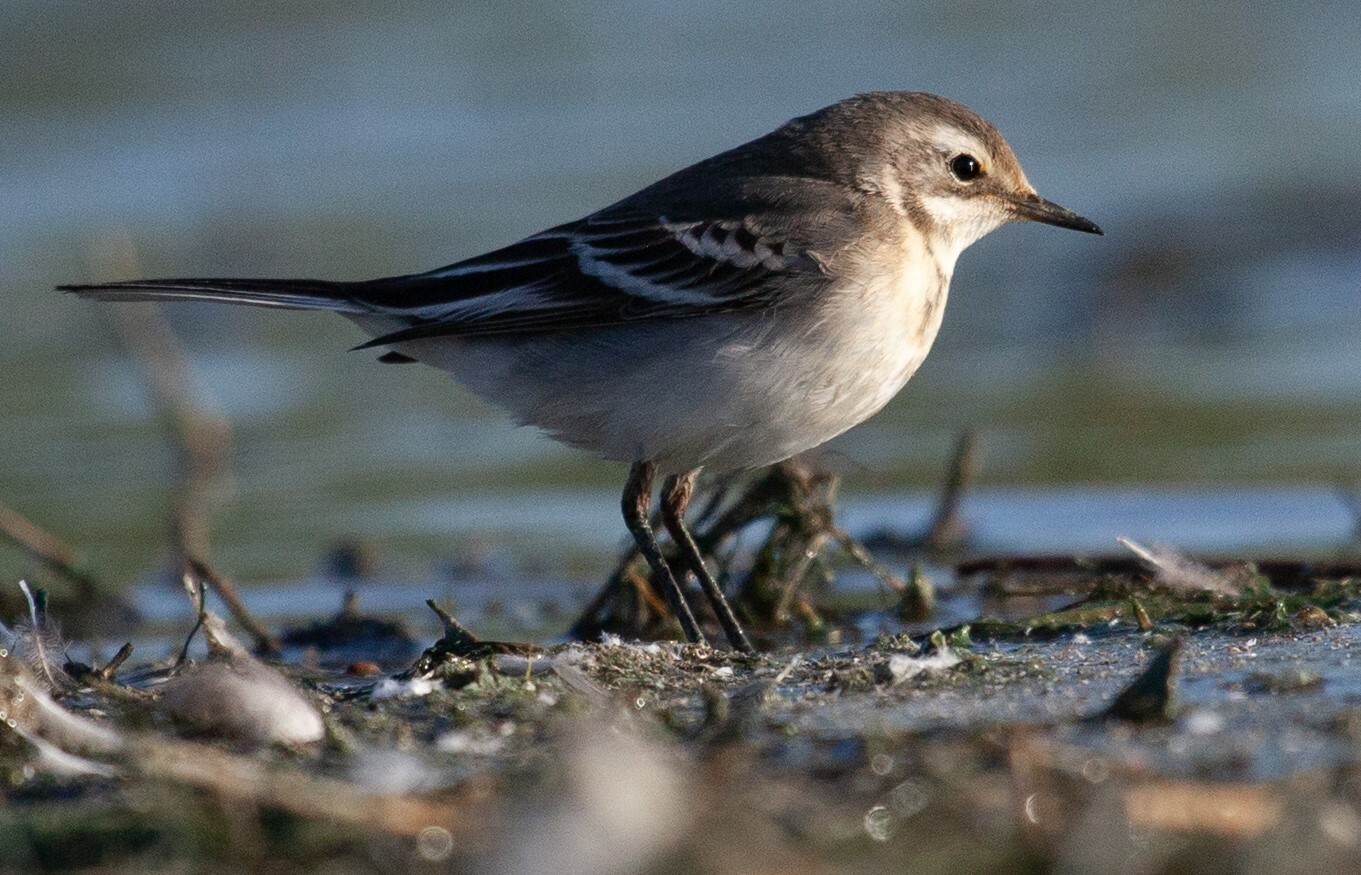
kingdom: Animalia
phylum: Chordata
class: Aves
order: Passeriformes
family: Motacillidae
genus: Motacilla
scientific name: Motacilla alba
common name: White wagtail
